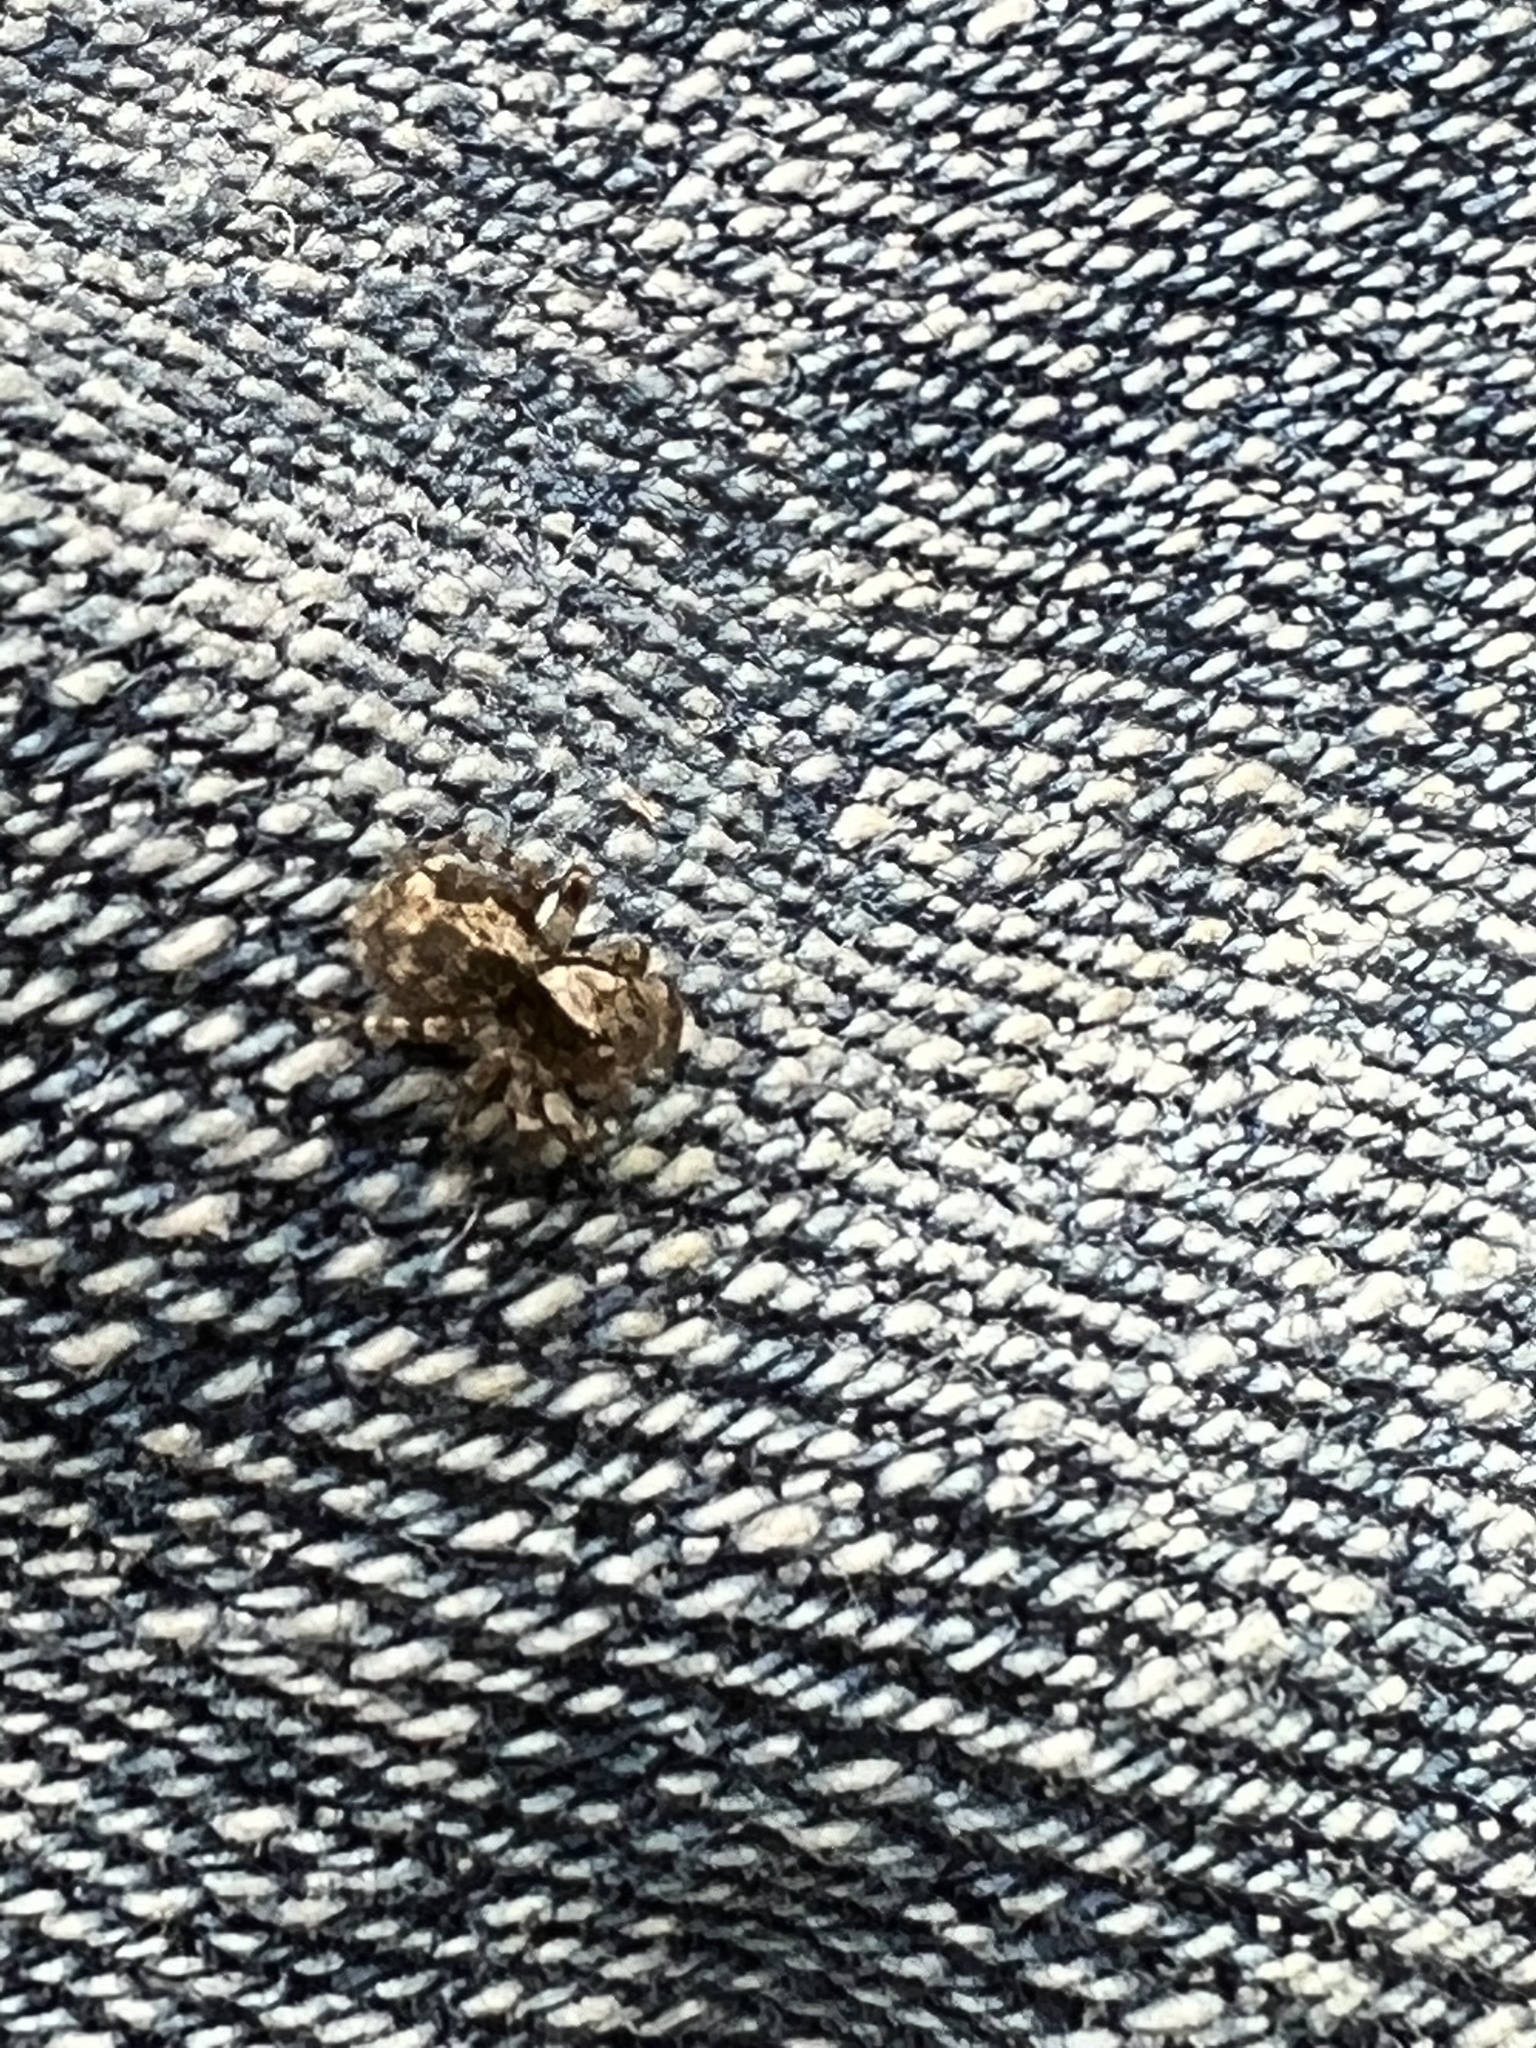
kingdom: Animalia
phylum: Arthropoda
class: Arachnida
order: Araneae
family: Salticidae
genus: Naphrys
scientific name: Naphrys pulex
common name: Flea jumping spider
